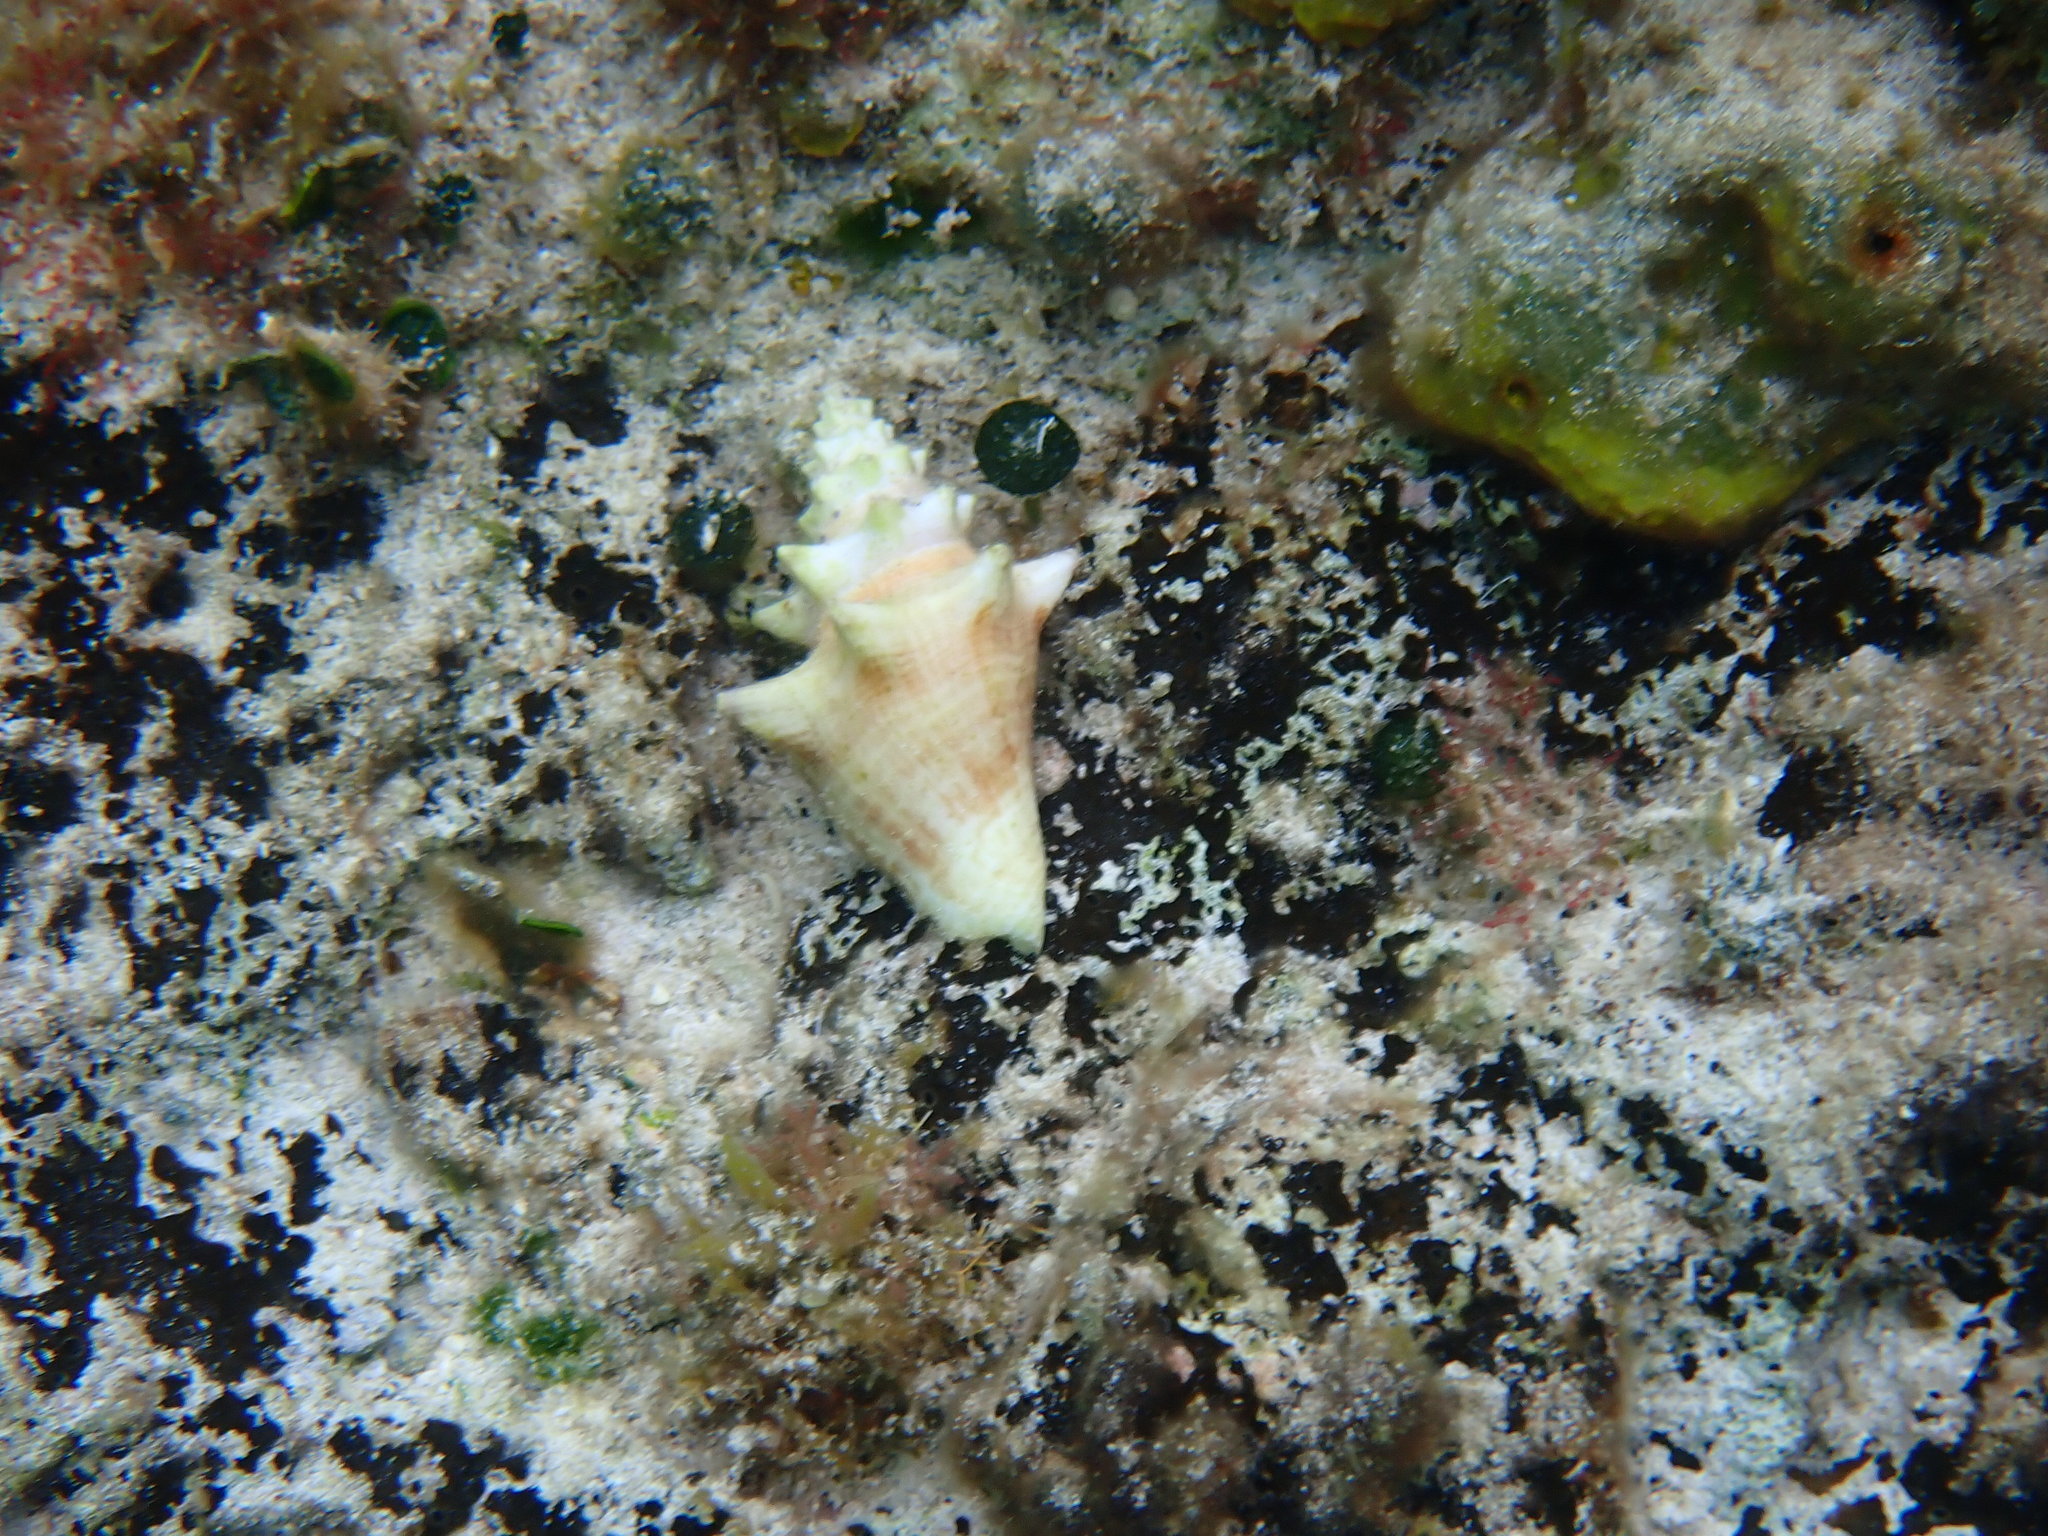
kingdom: Animalia
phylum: Mollusca
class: Gastropoda
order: Littorinimorpha
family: Strombidae
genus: Aliger
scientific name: Aliger gigas
